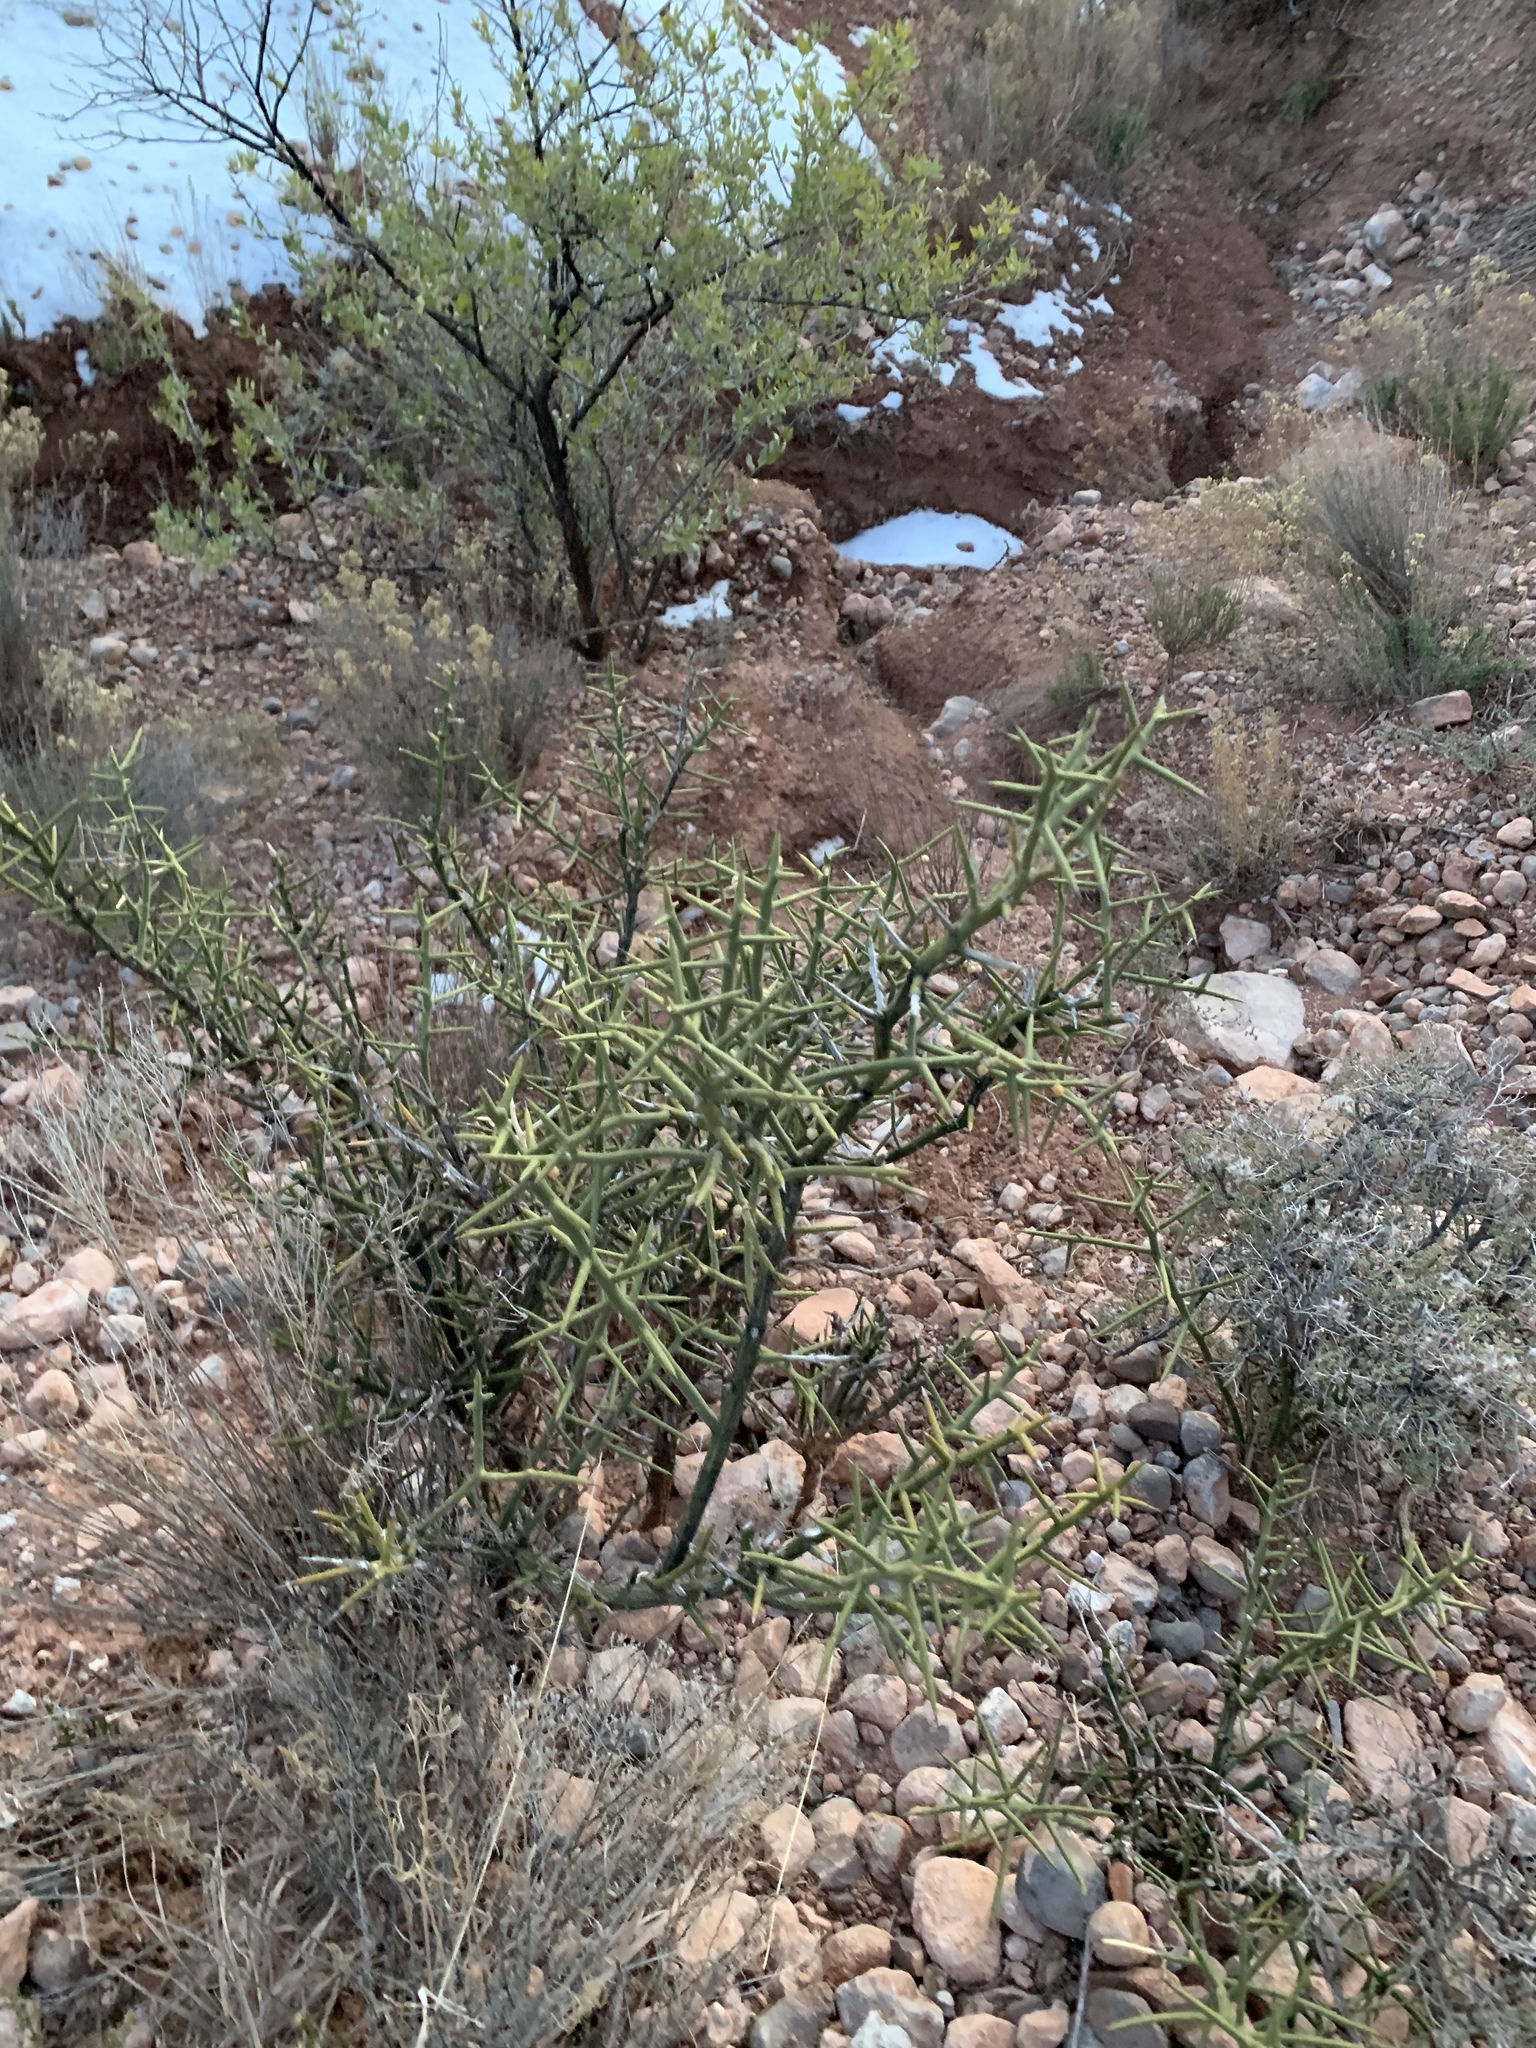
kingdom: Plantae
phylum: Tracheophyta
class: Magnoliopsida
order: Brassicales
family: Koeberliniaceae
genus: Koeberlinia
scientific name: Koeberlinia spinosa
